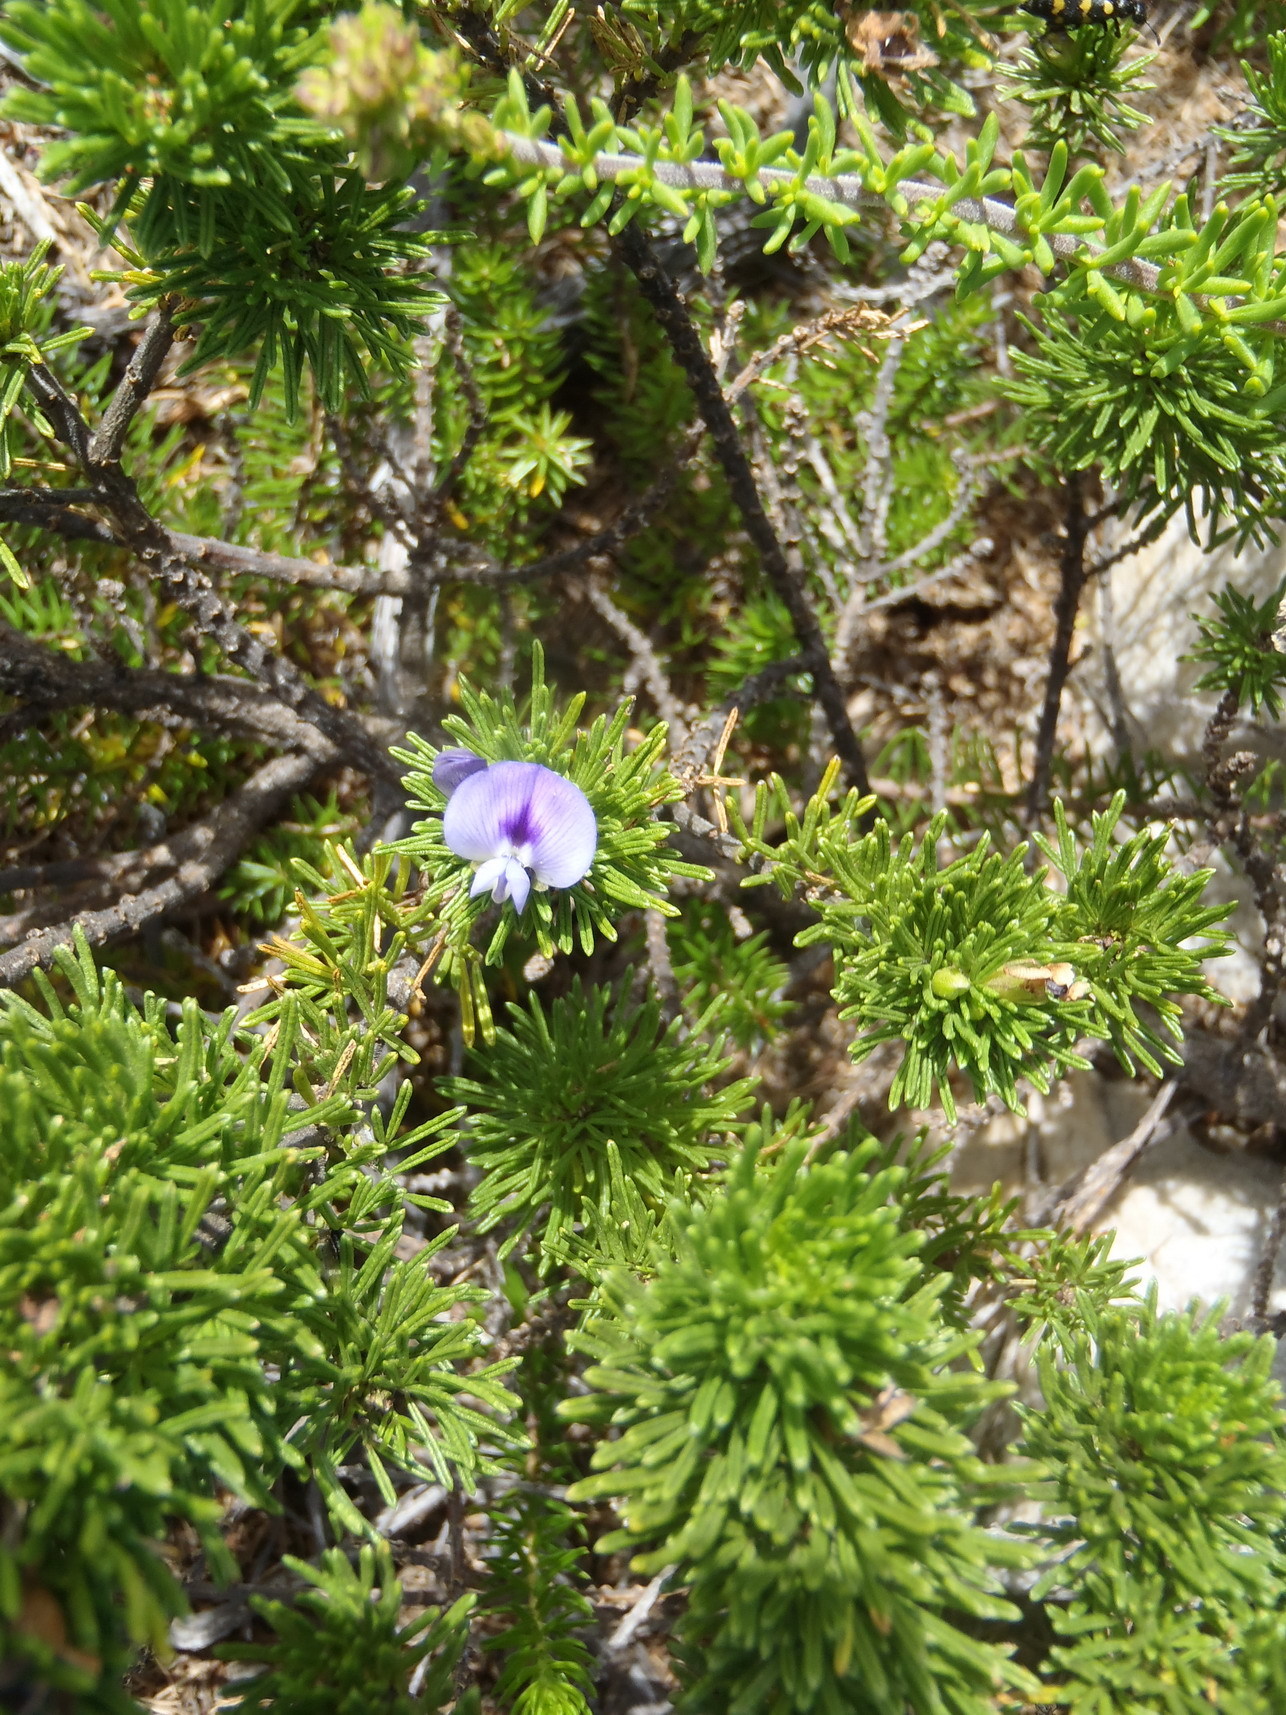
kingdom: Plantae
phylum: Tracheophyta
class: Magnoliopsida
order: Fabales
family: Fabaceae
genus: Psoralea
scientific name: Psoralea vanberkelae
